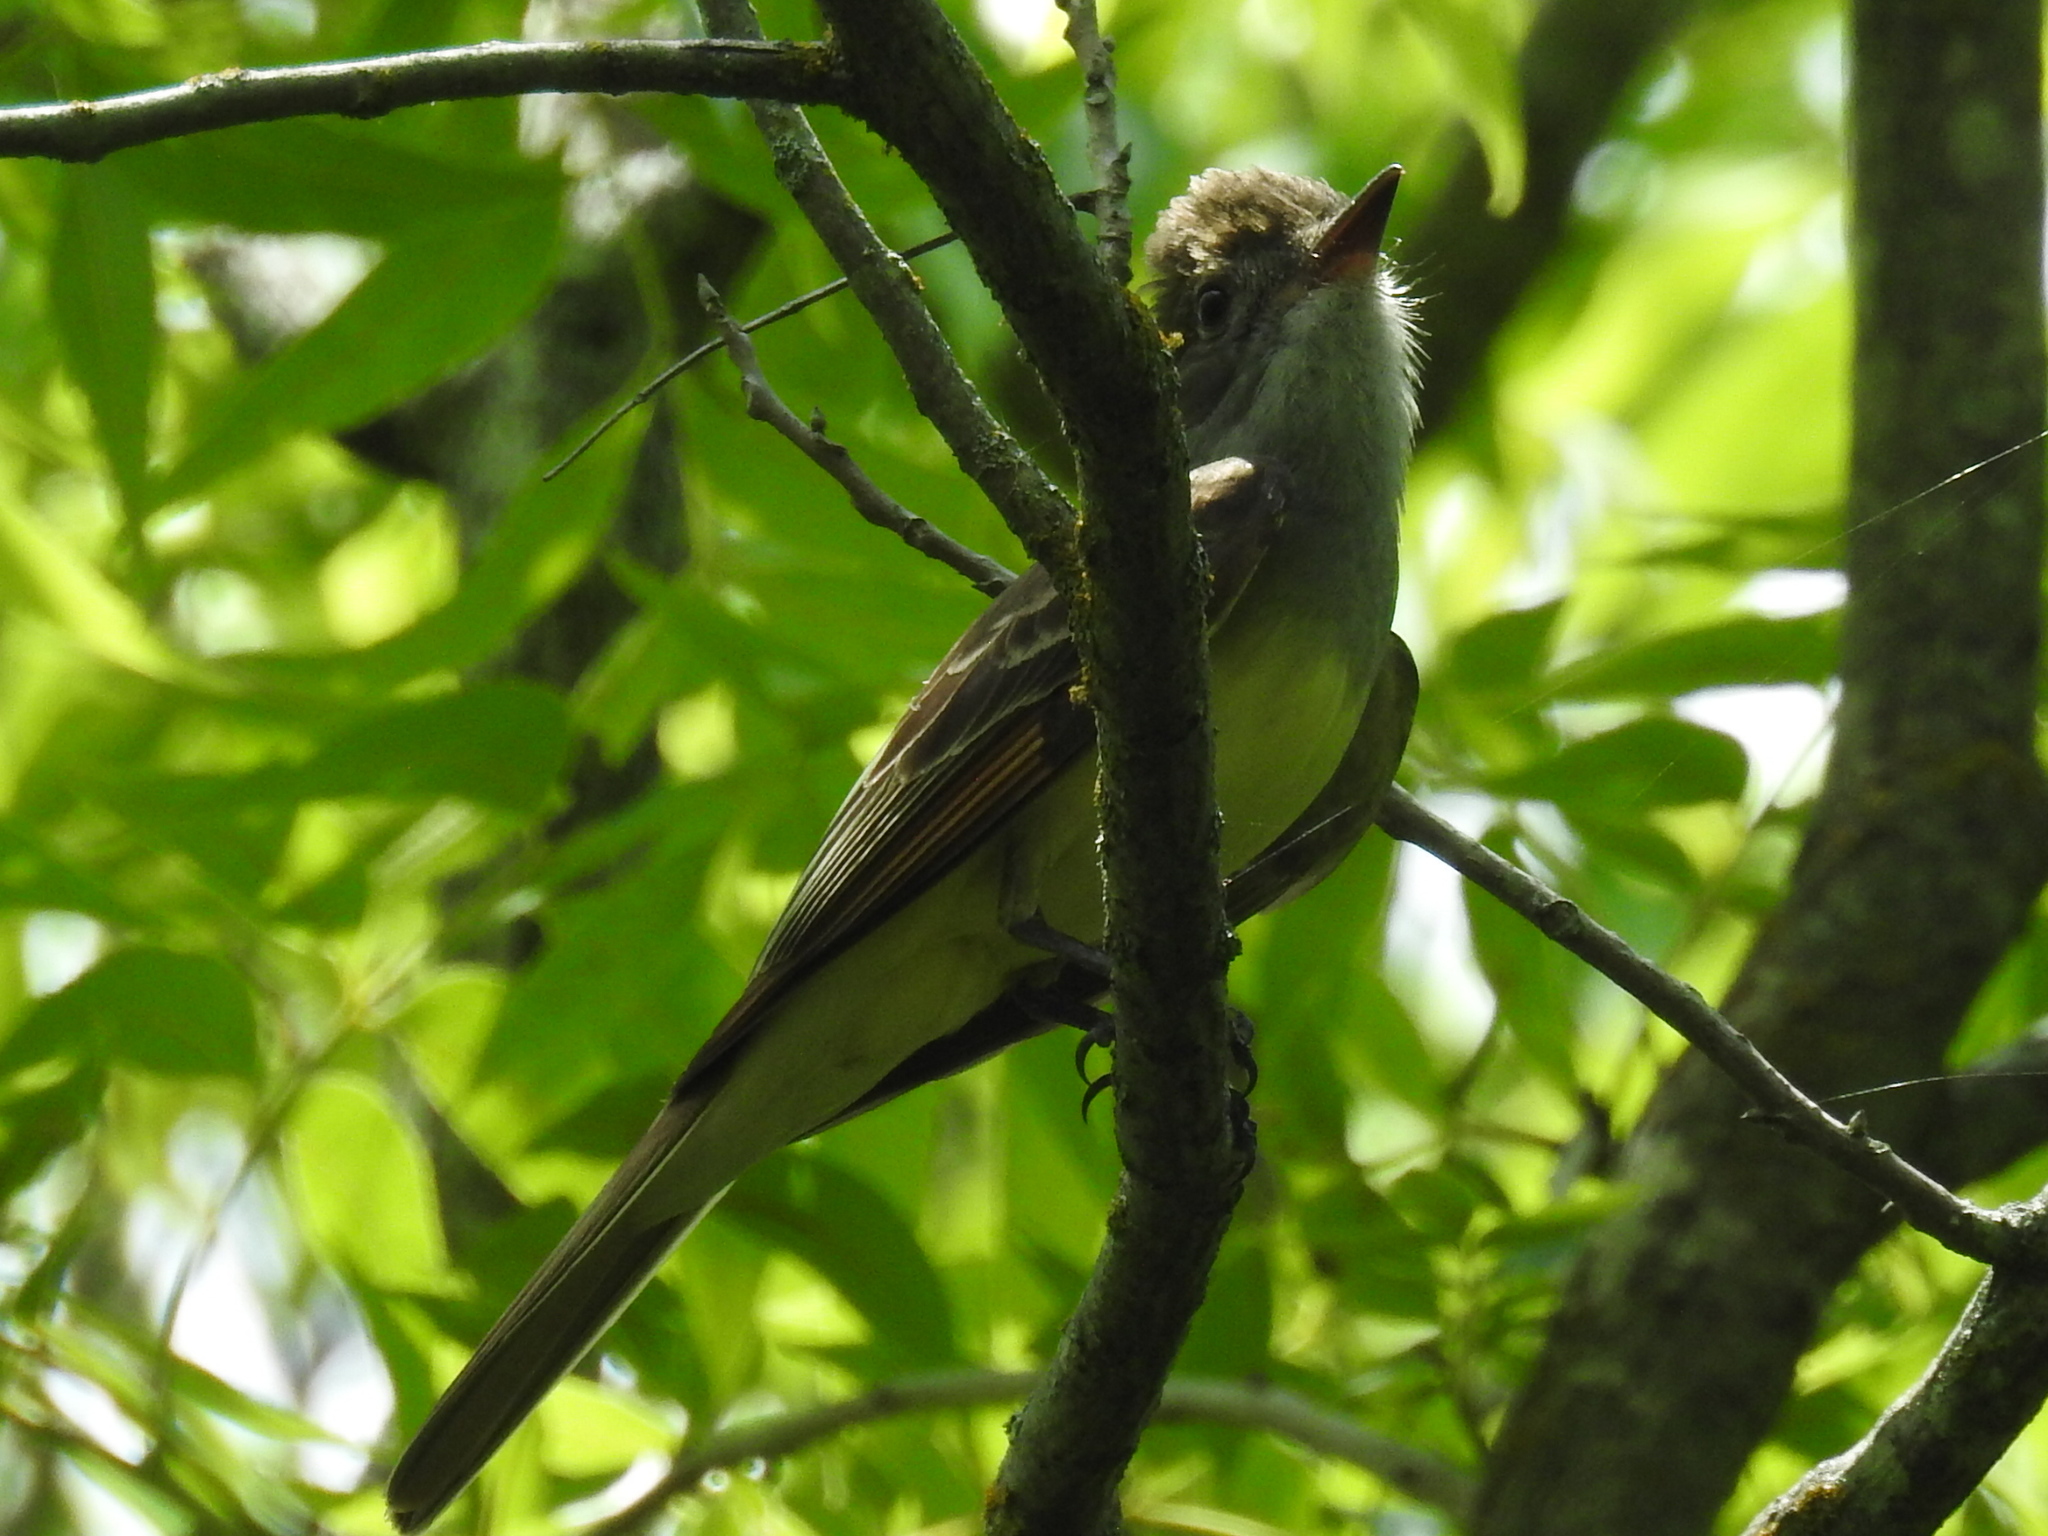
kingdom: Animalia
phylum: Chordata
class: Aves
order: Passeriformes
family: Tyrannidae
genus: Myiarchus
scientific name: Myiarchus crinitus
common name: Great crested flycatcher
